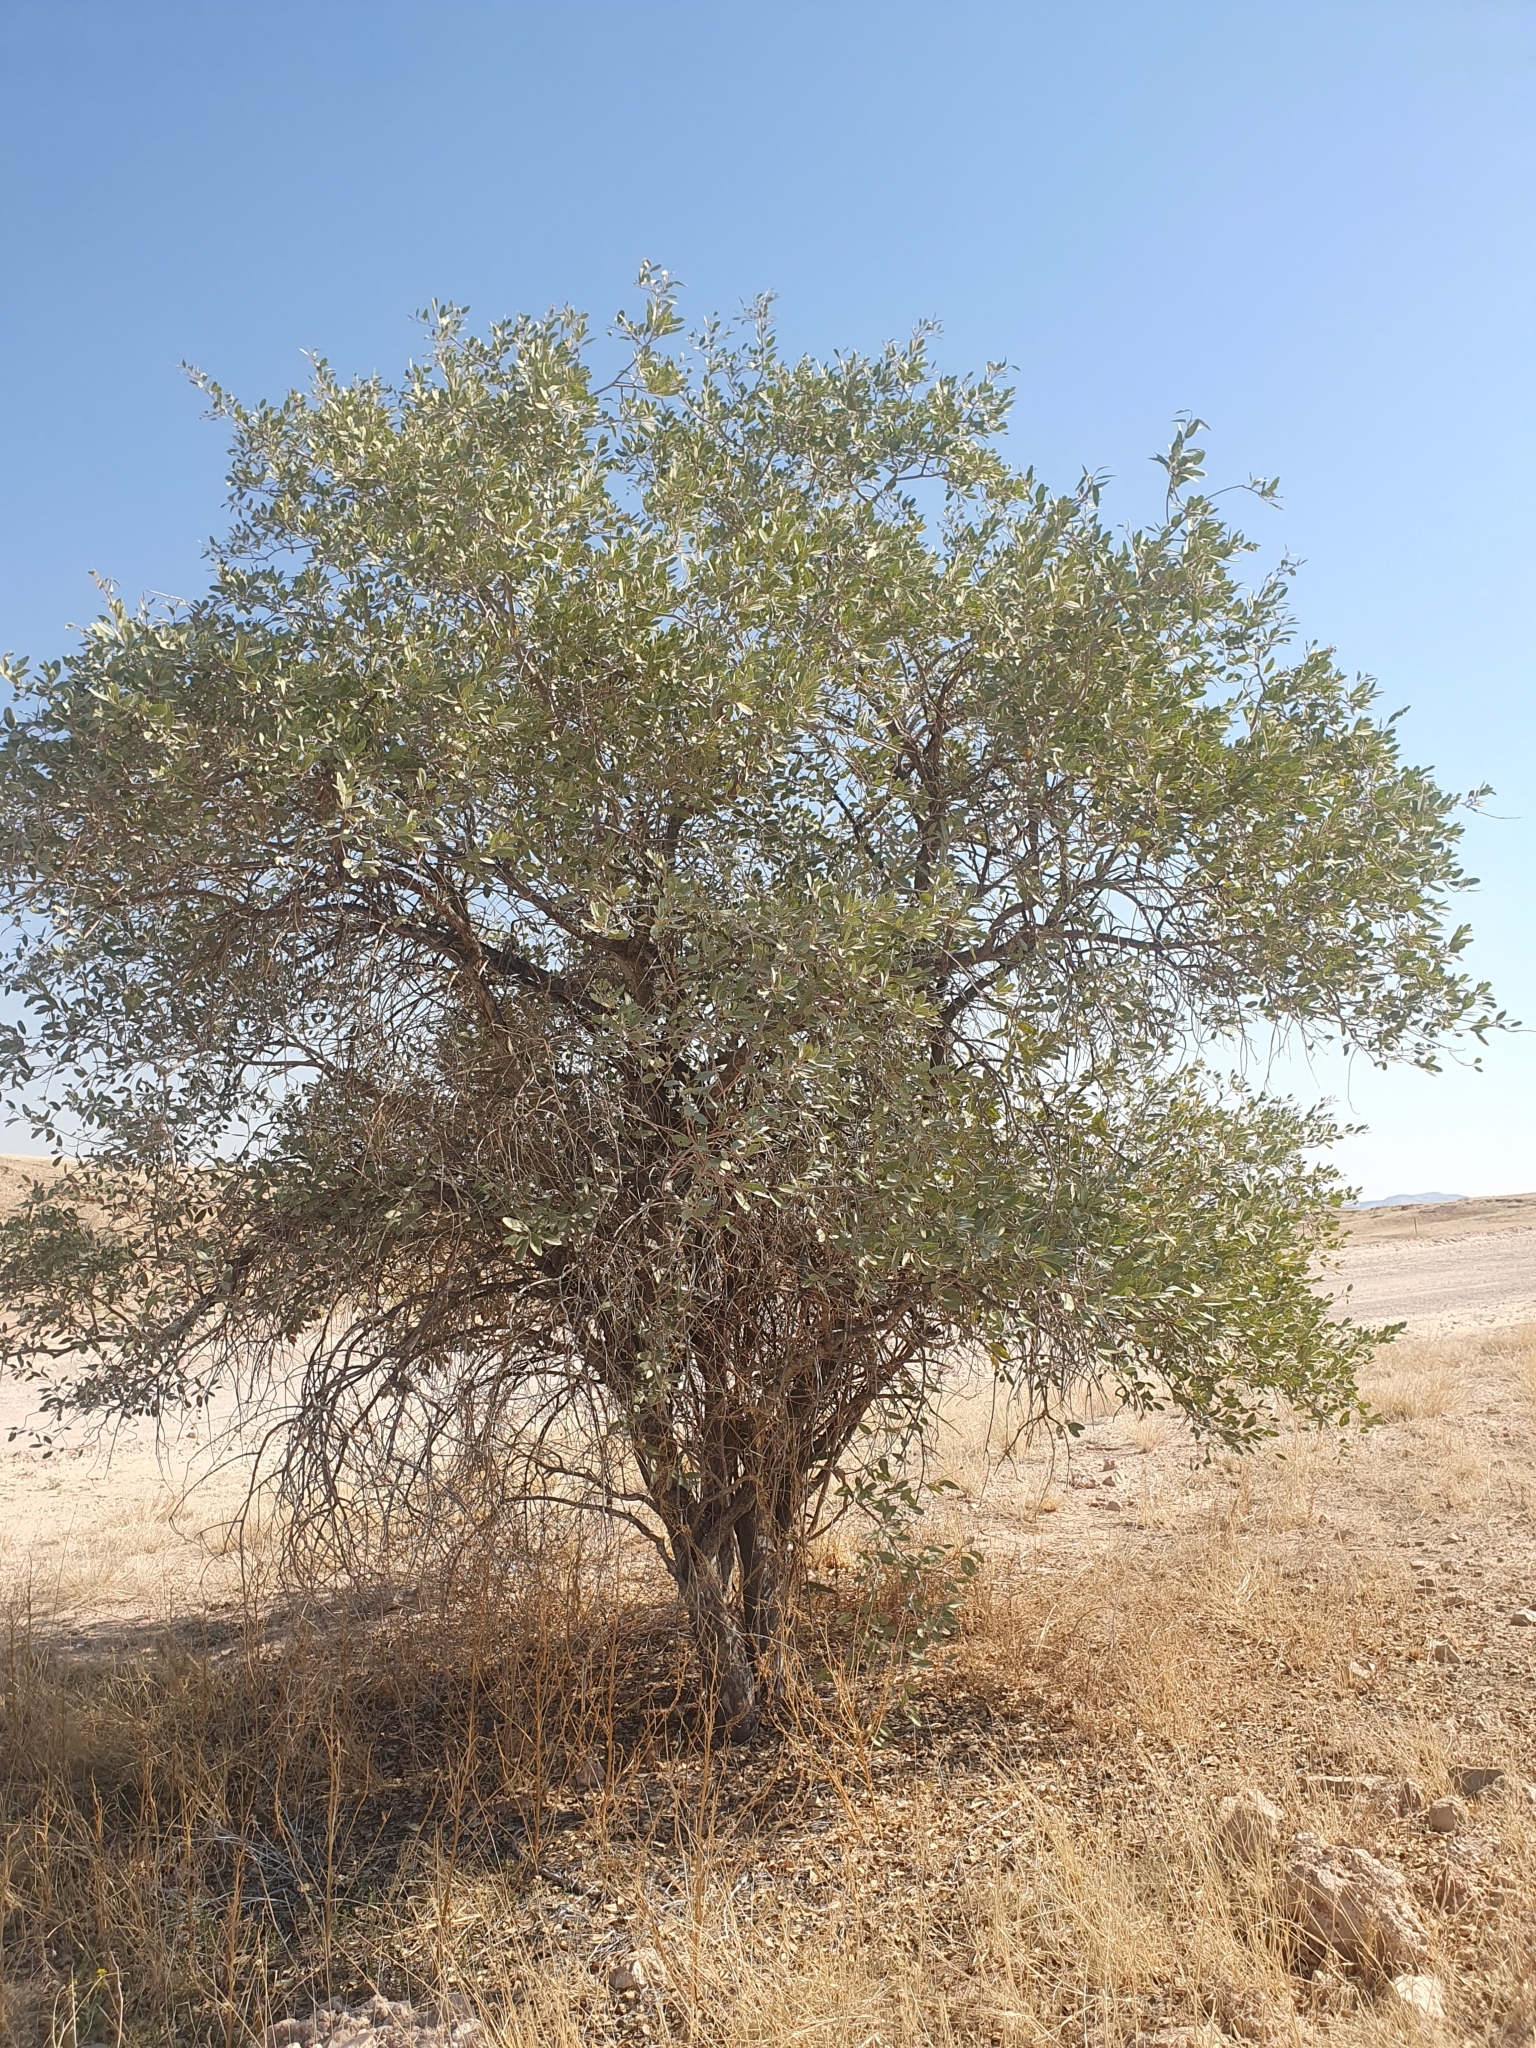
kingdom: Plantae
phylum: Tracheophyta
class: Magnoliopsida
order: Brassicales
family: Capparaceae
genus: Maerua
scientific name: Maerua schinzii
